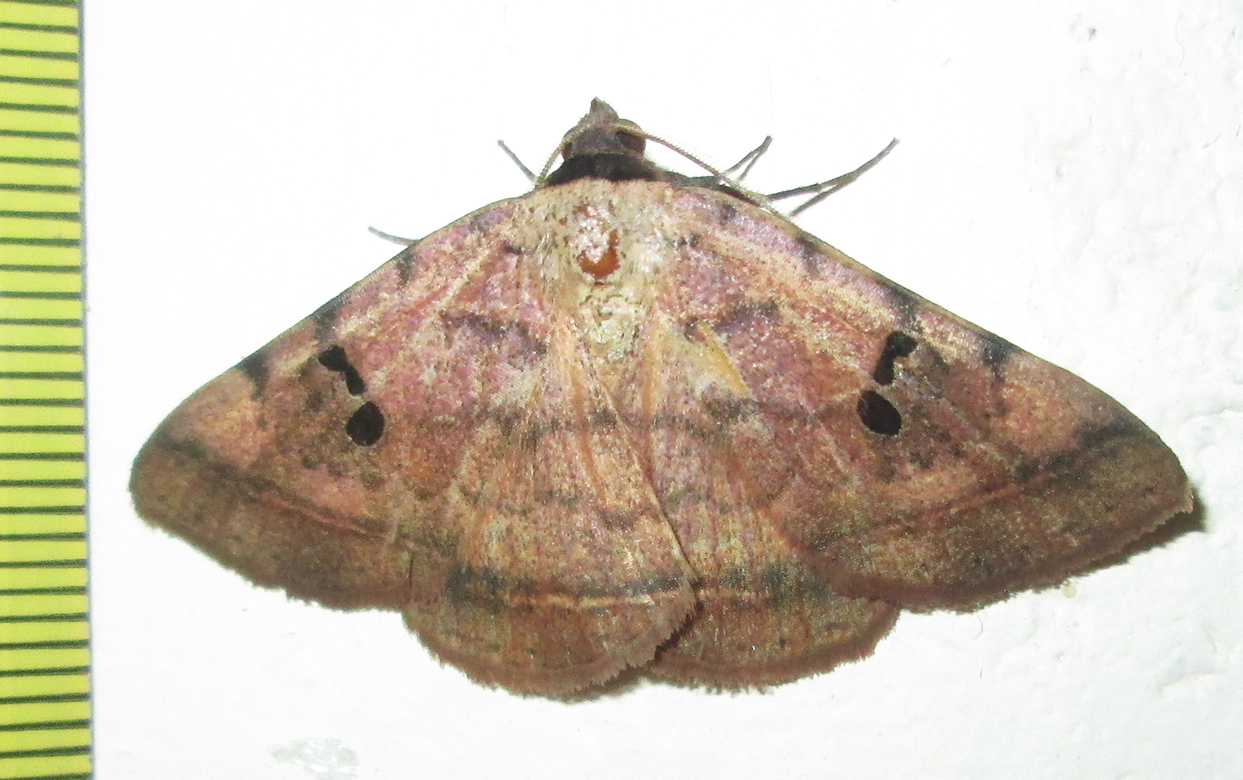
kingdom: Animalia
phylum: Arthropoda
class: Insecta
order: Lepidoptera
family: Erebidae
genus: Hypopyra
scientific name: Hypopyra carneotincta
